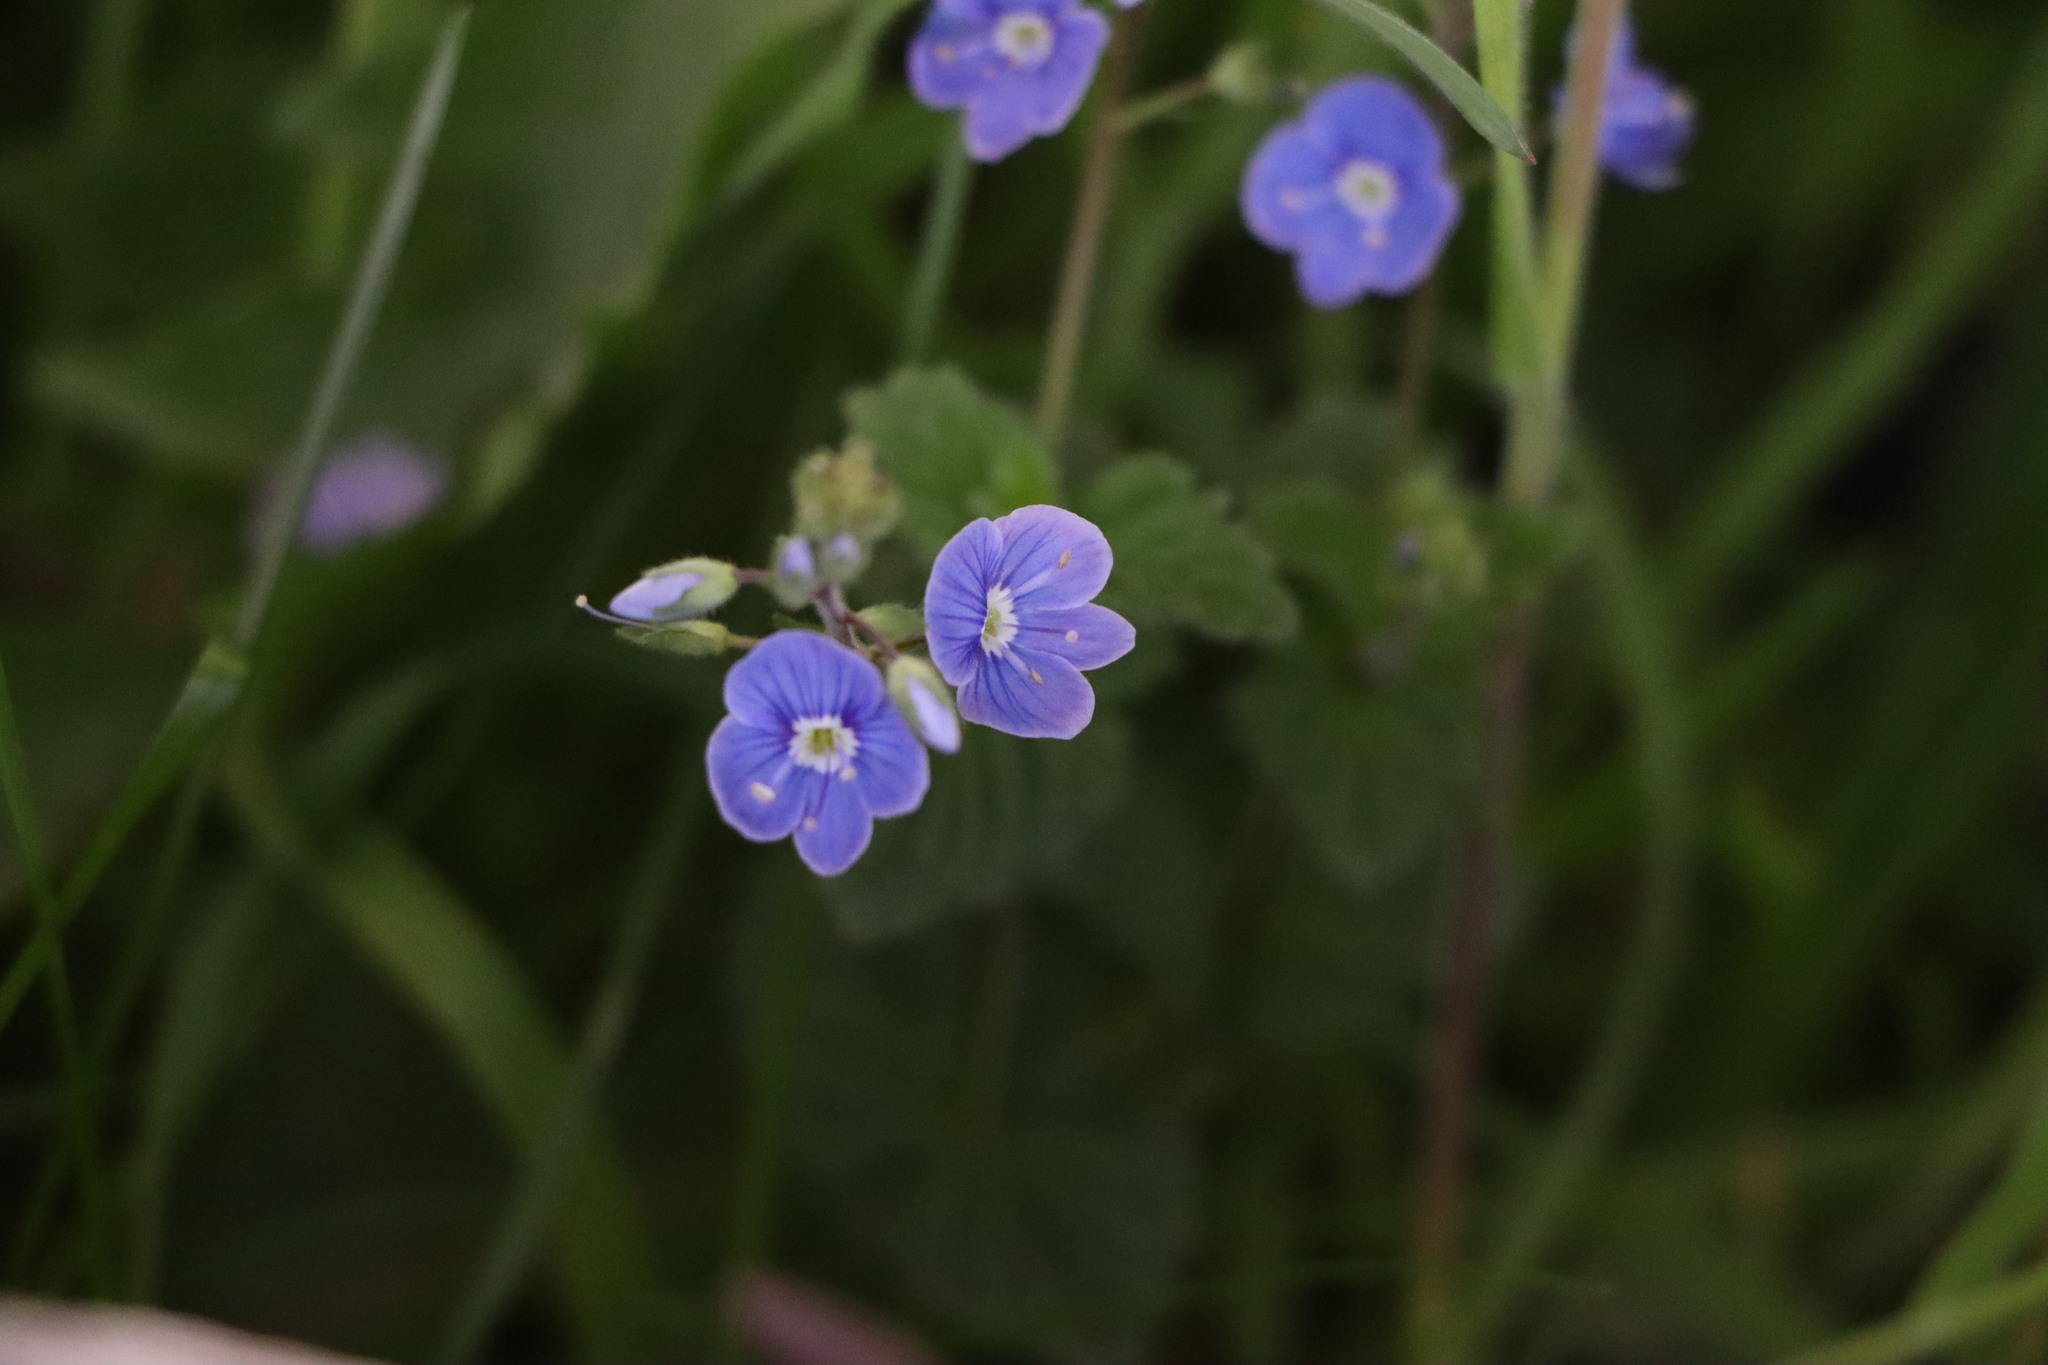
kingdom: Plantae
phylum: Tracheophyta
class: Magnoliopsida
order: Lamiales
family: Plantaginaceae
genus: Veronica
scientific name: Veronica chamaedrys
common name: Germander speedwell
